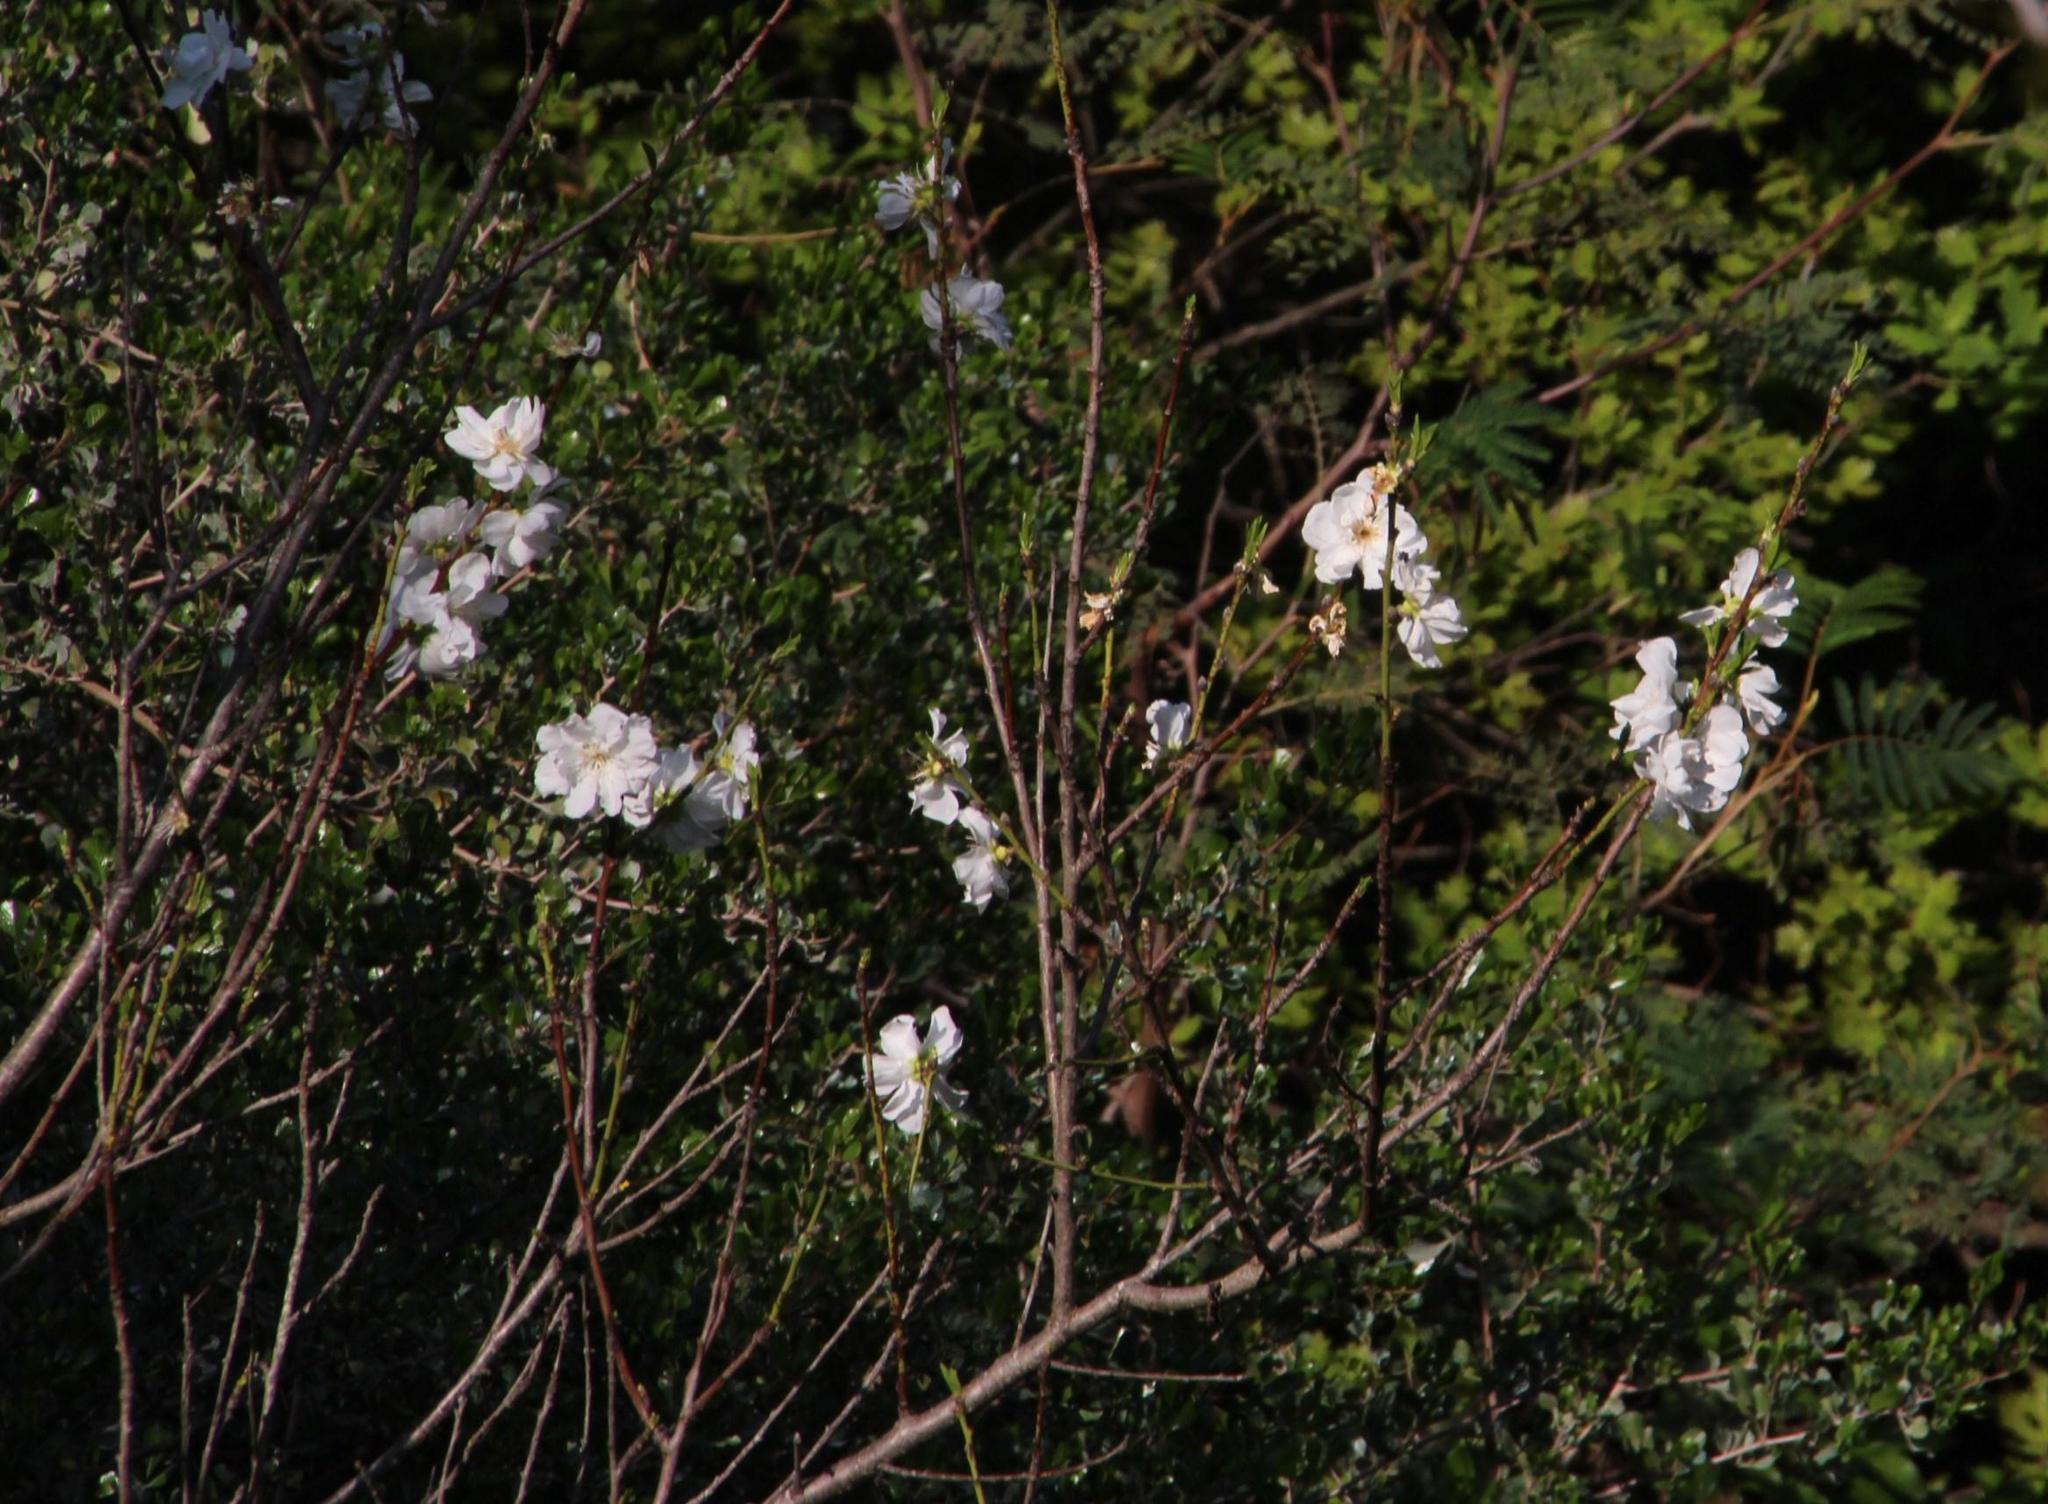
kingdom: Plantae
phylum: Tracheophyta
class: Magnoliopsida
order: Rosales
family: Rosaceae
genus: Prunus
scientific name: Prunus persica
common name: Peach
